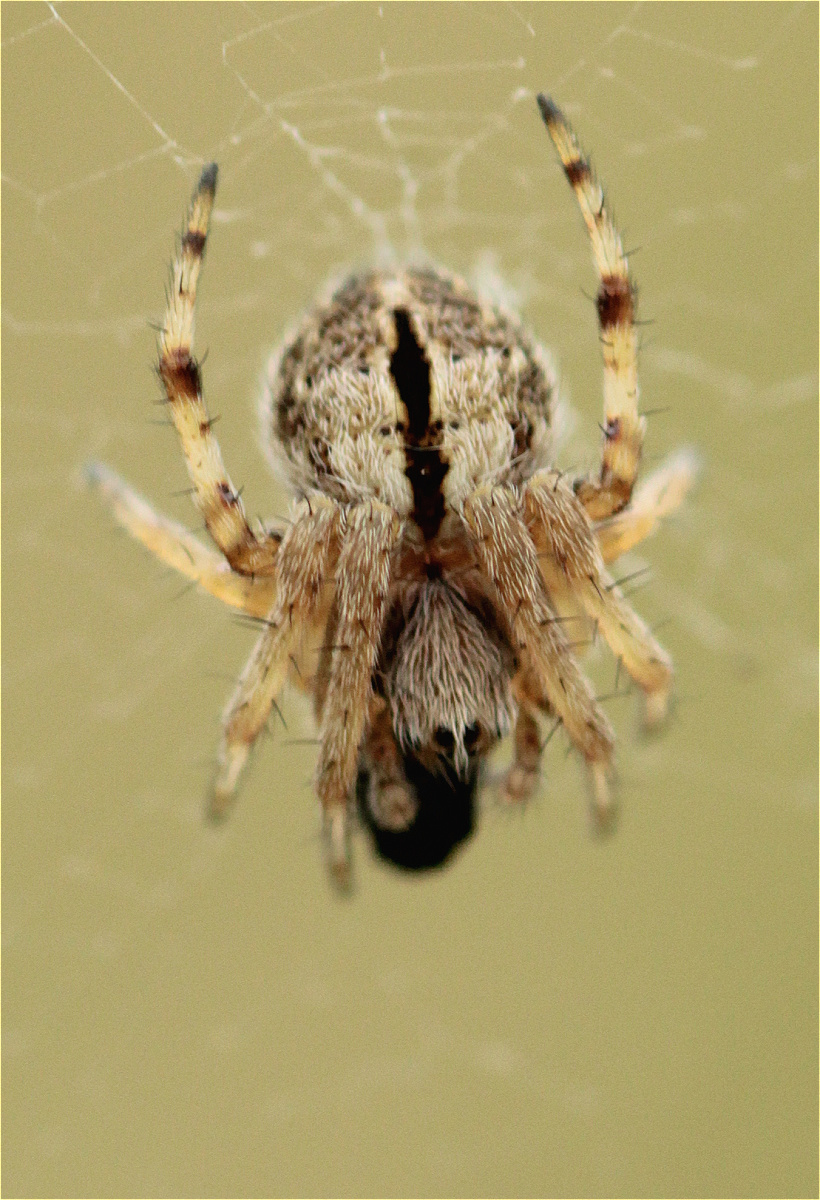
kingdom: Animalia
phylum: Arthropoda
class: Arachnida
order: Araneae
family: Araneidae
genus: Agalenatea
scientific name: Agalenatea redii
